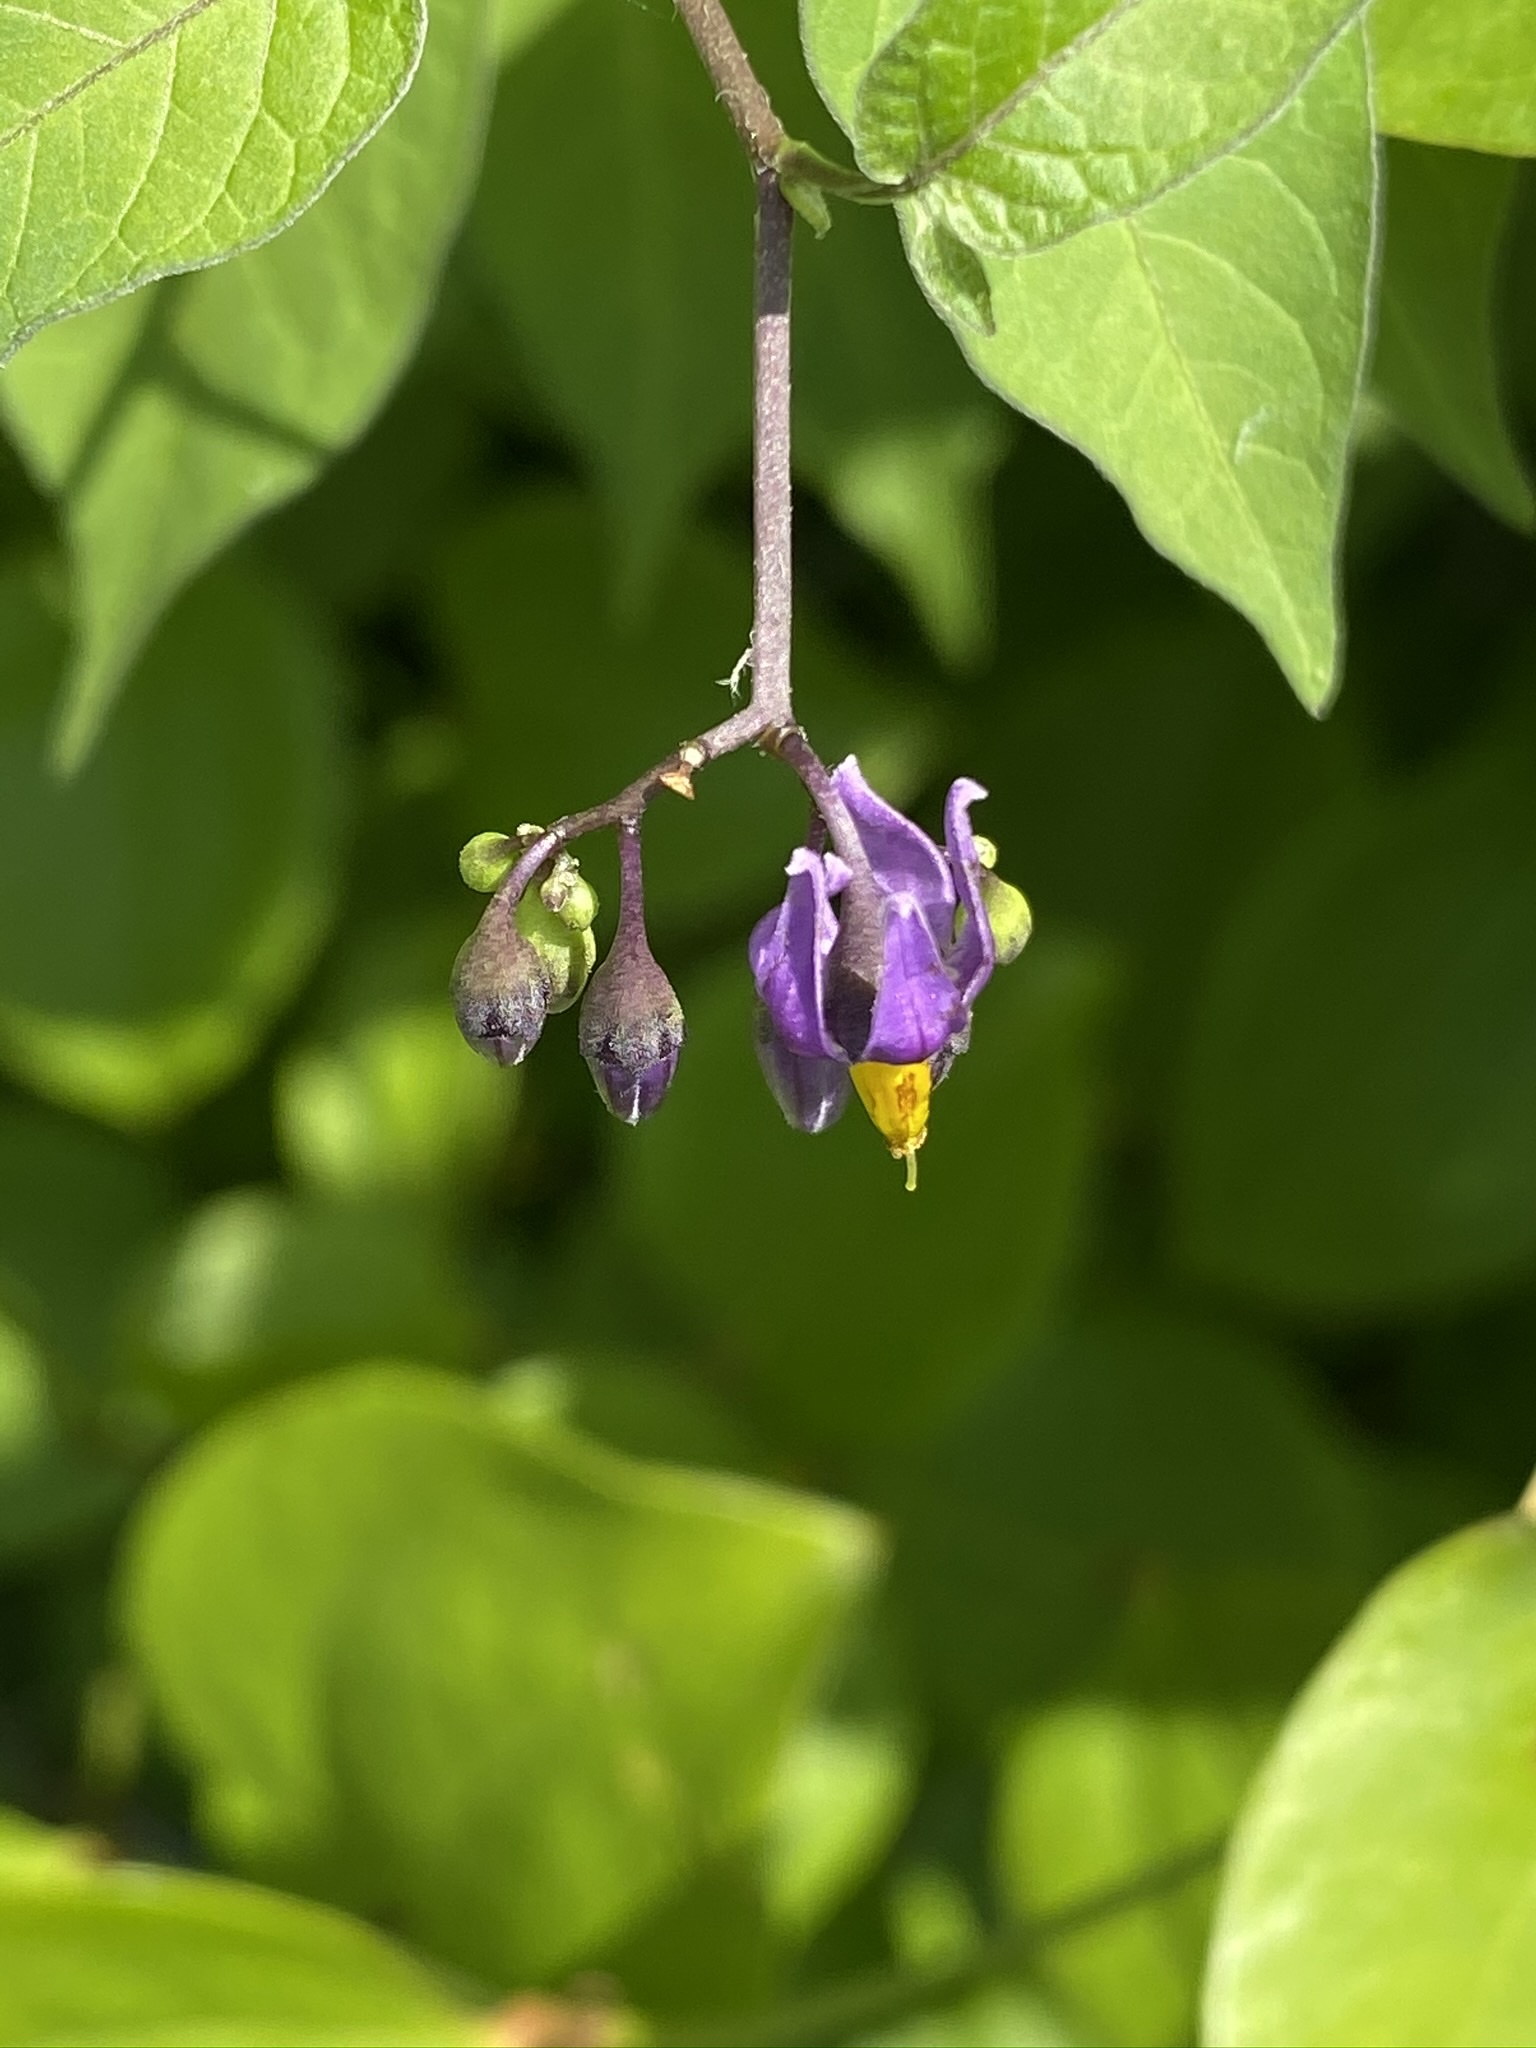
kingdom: Plantae
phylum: Tracheophyta
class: Magnoliopsida
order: Solanales
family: Solanaceae
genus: Solanum
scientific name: Solanum dulcamara
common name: Climbing nightshade
